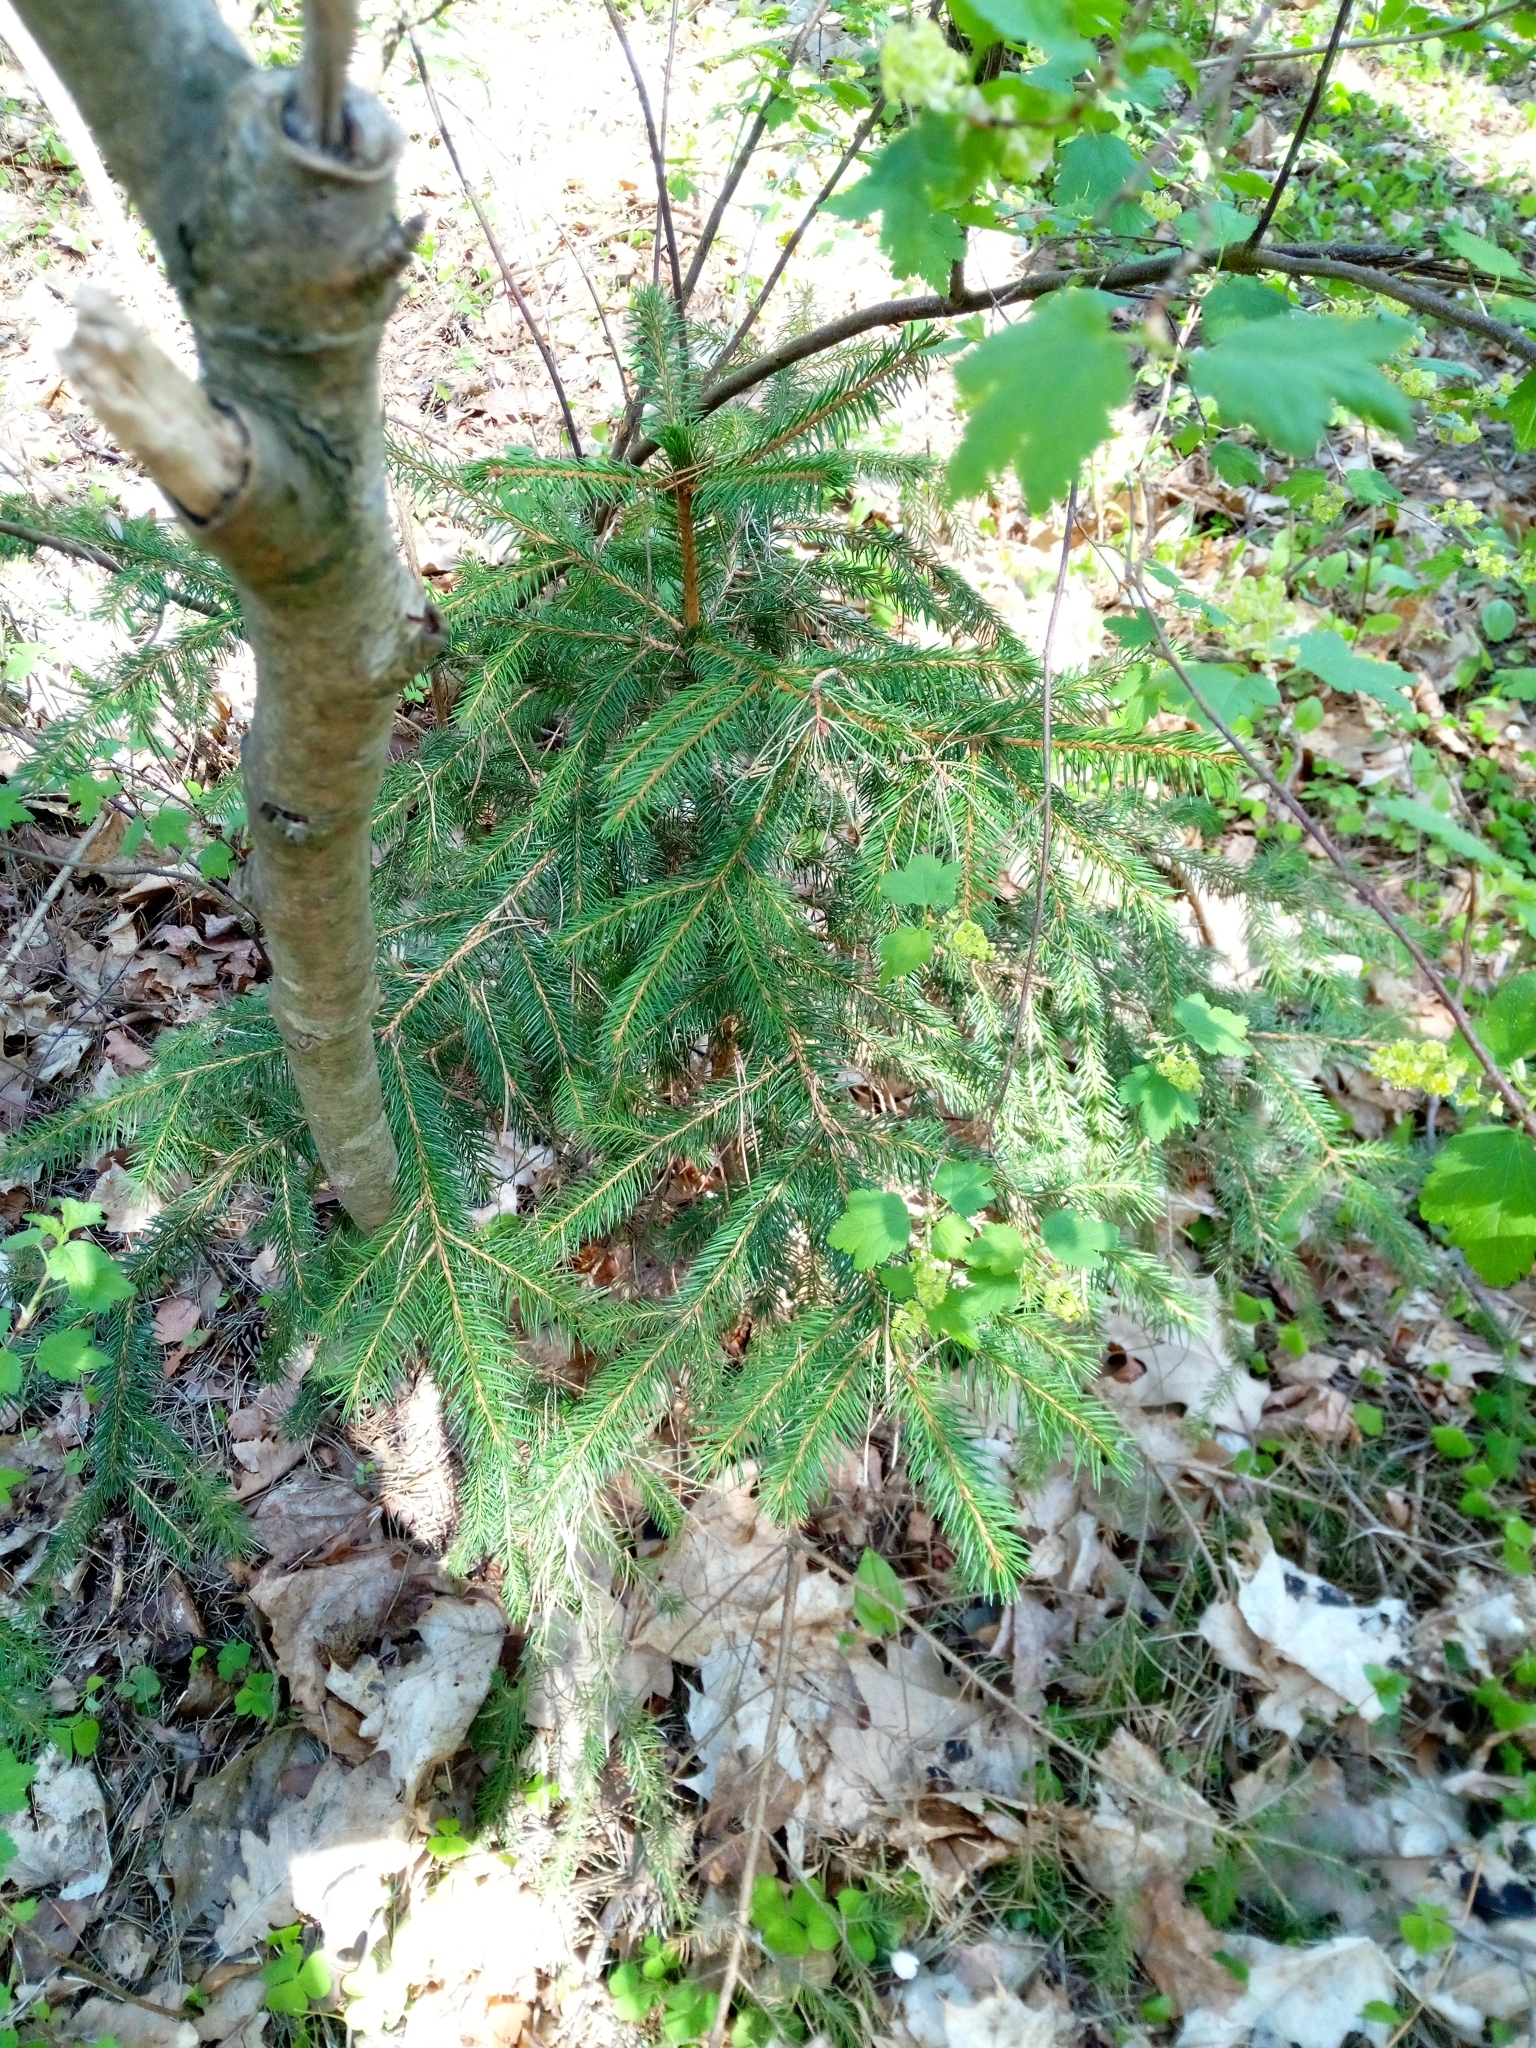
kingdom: Plantae
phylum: Tracheophyta
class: Pinopsida
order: Pinales
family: Pinaceae
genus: Picea
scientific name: Picea abies
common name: Norway spruce
